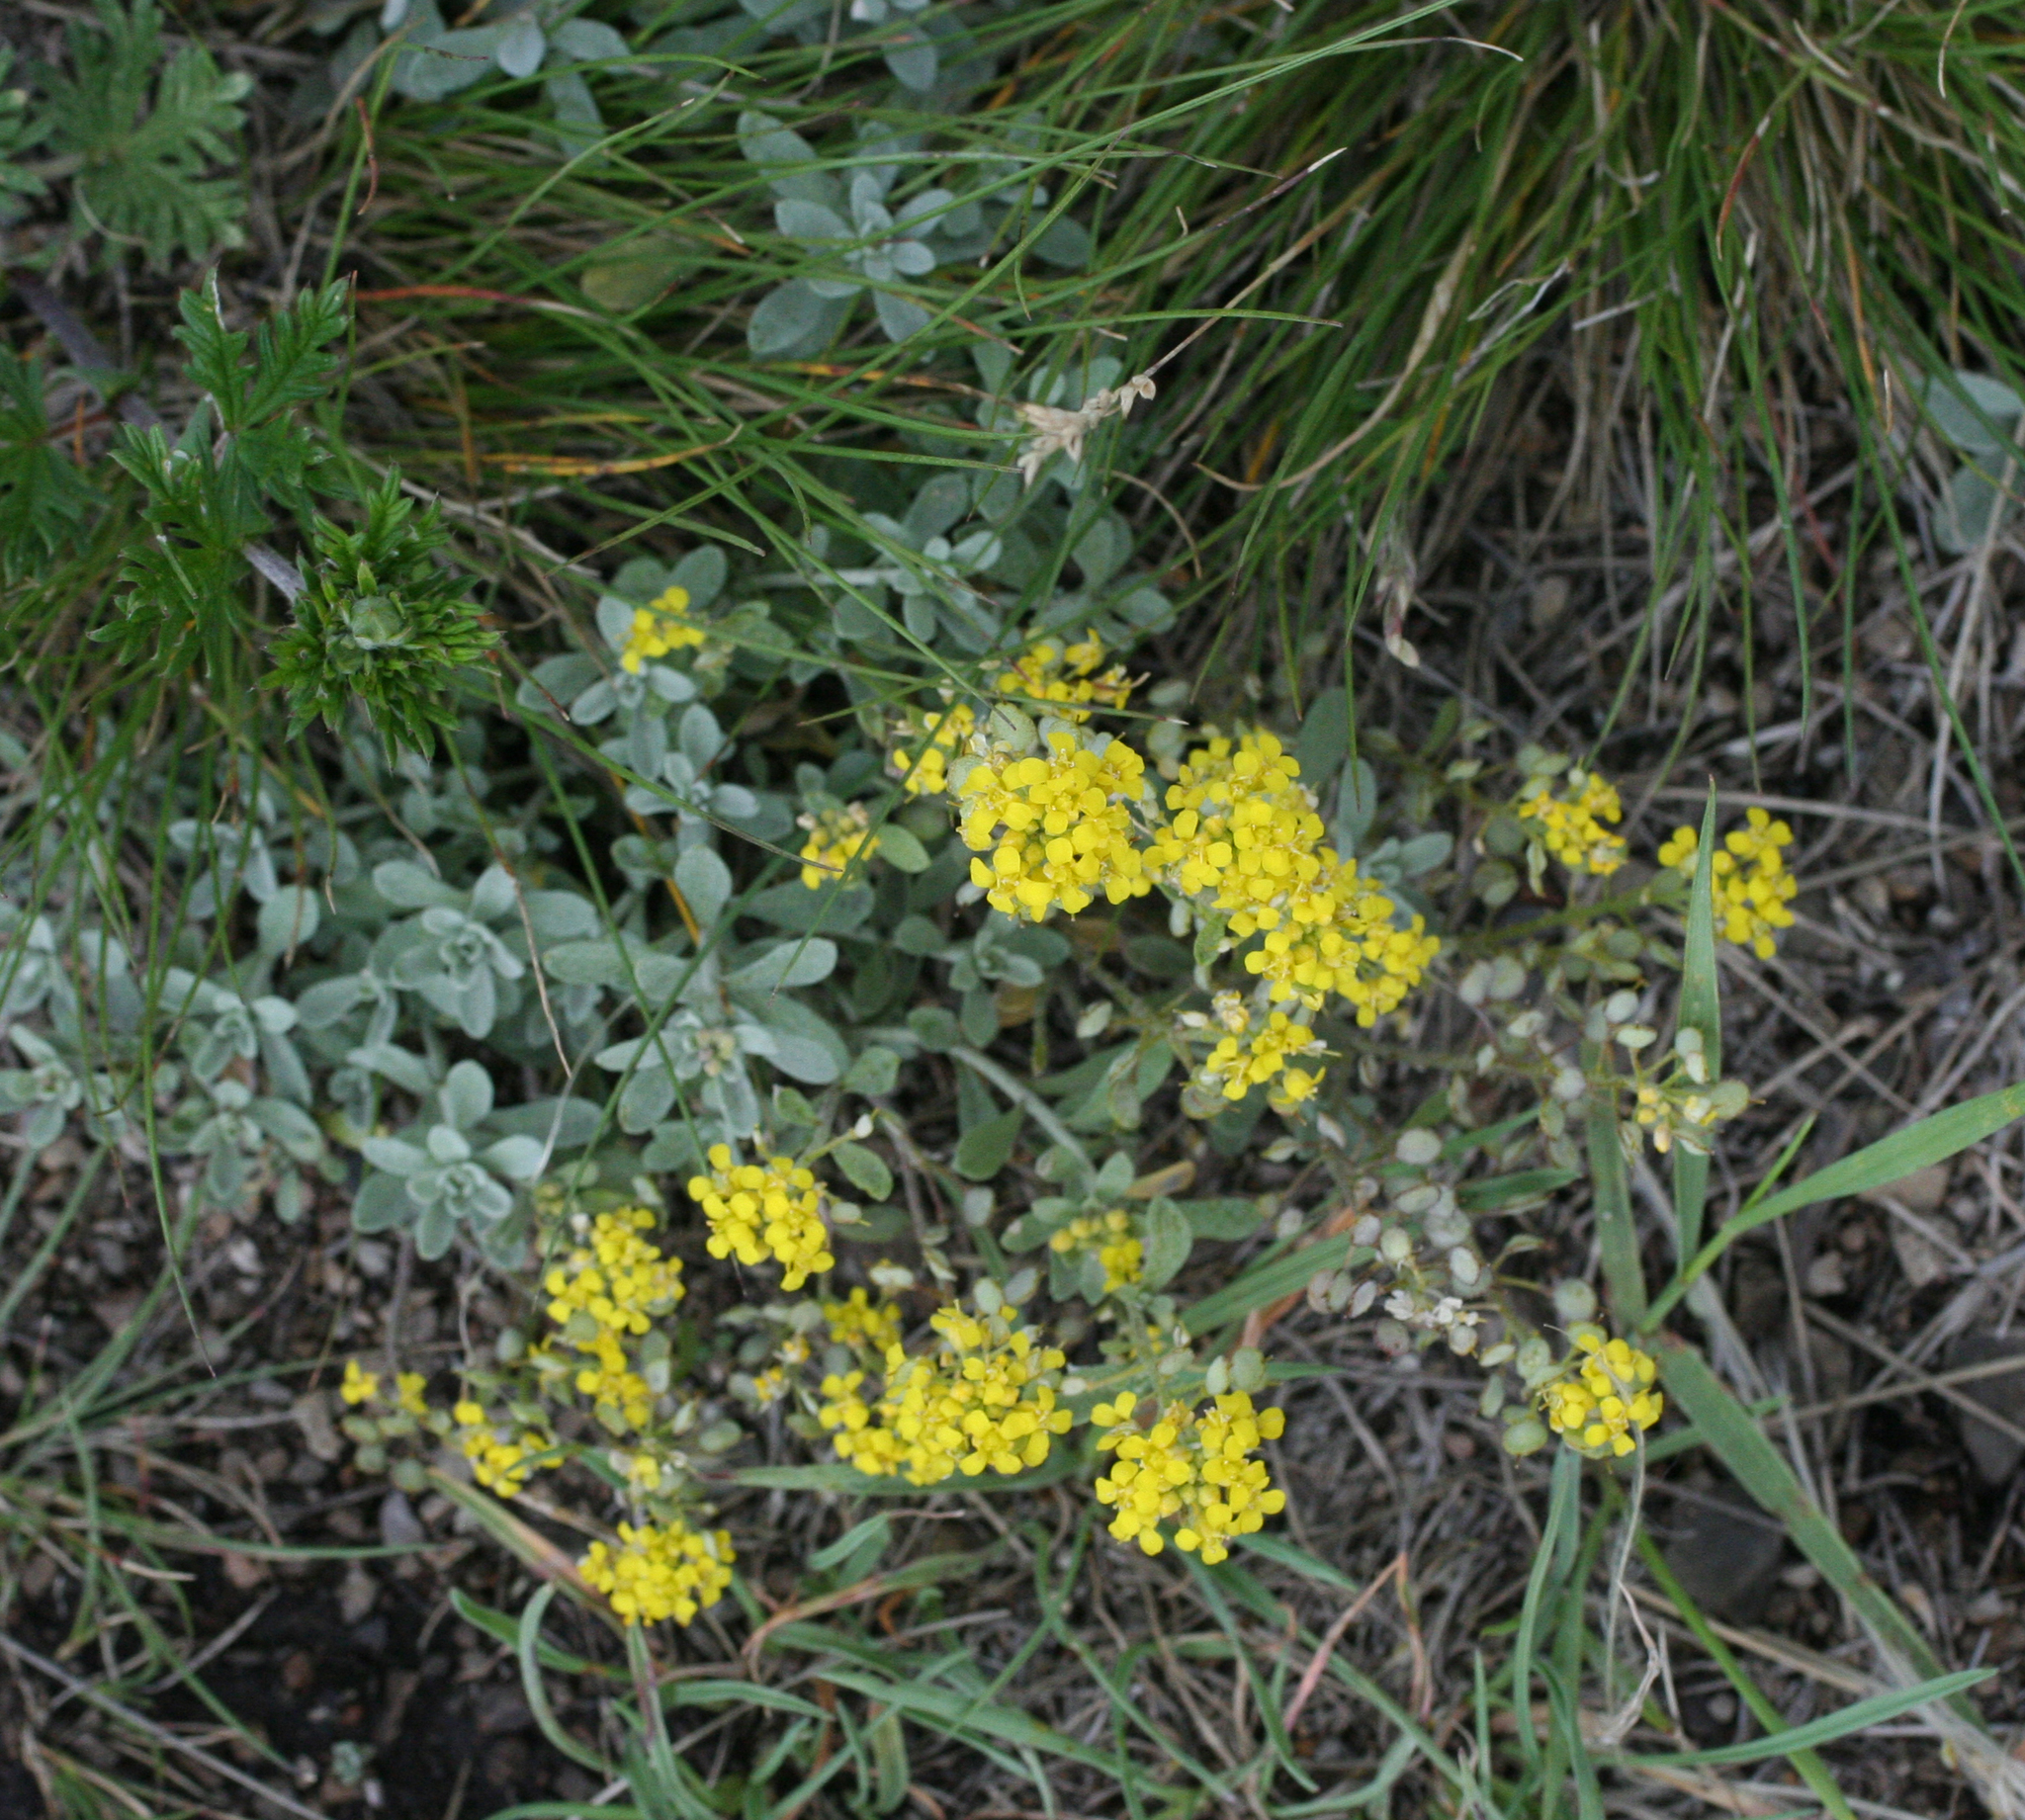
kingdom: Plantae
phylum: Tracheophyta
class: Magnoliopsida
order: Brassicales
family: Brassicaceae
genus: Odontarrhena
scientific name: Odontarrhena obovata
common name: American alyssum
